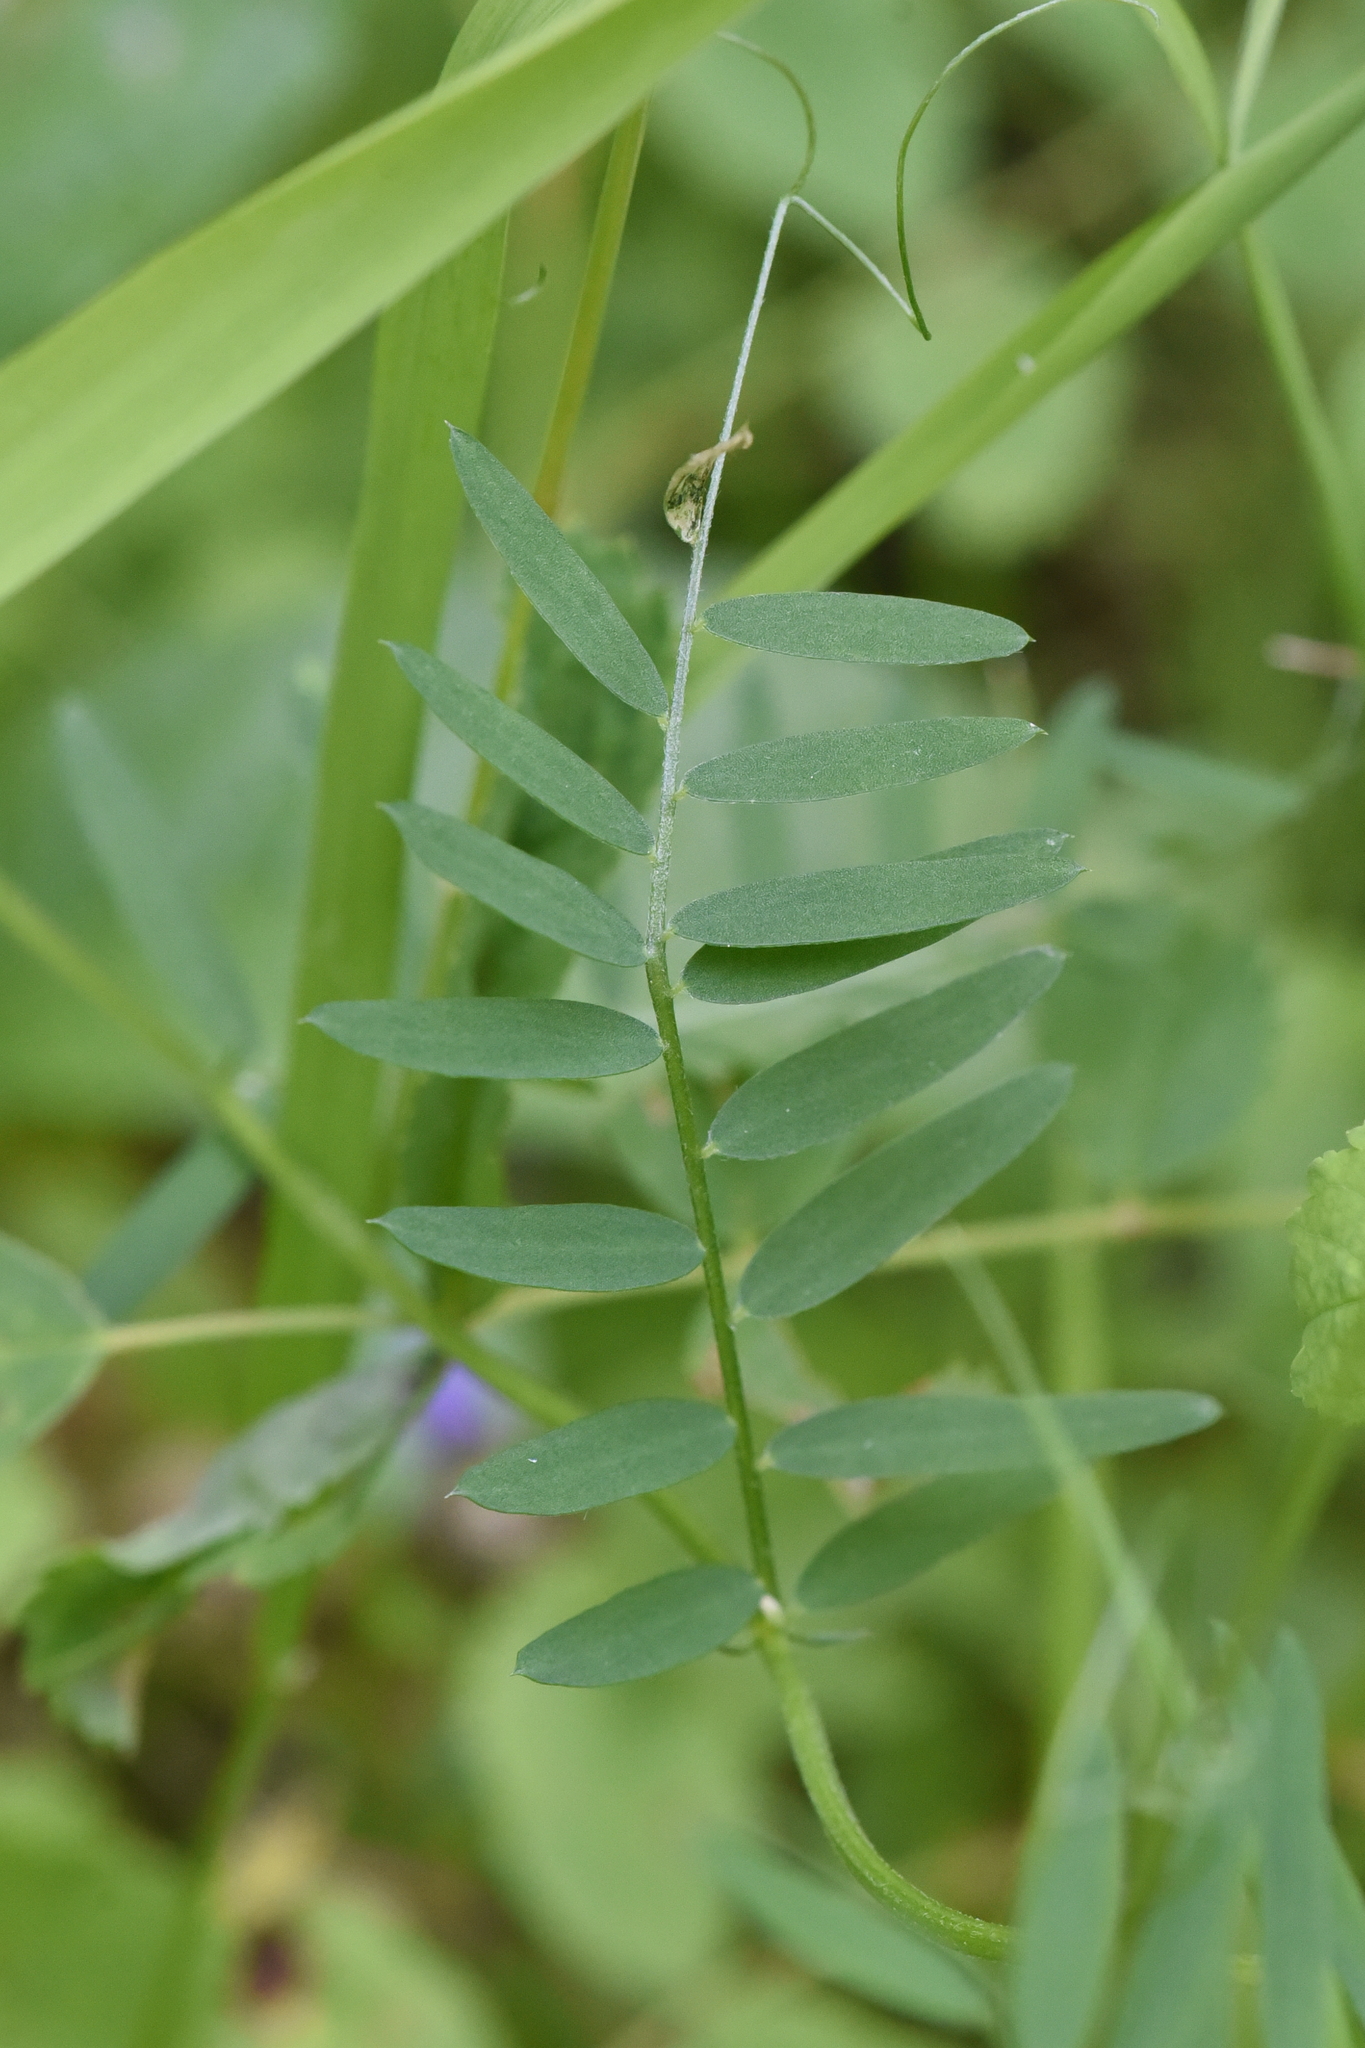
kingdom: Plantae
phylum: Tracheophyta
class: Magnoliopsida
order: Fabales
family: Fabaceae
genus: Vicia
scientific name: Vicia cracca
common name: Bird vetch
